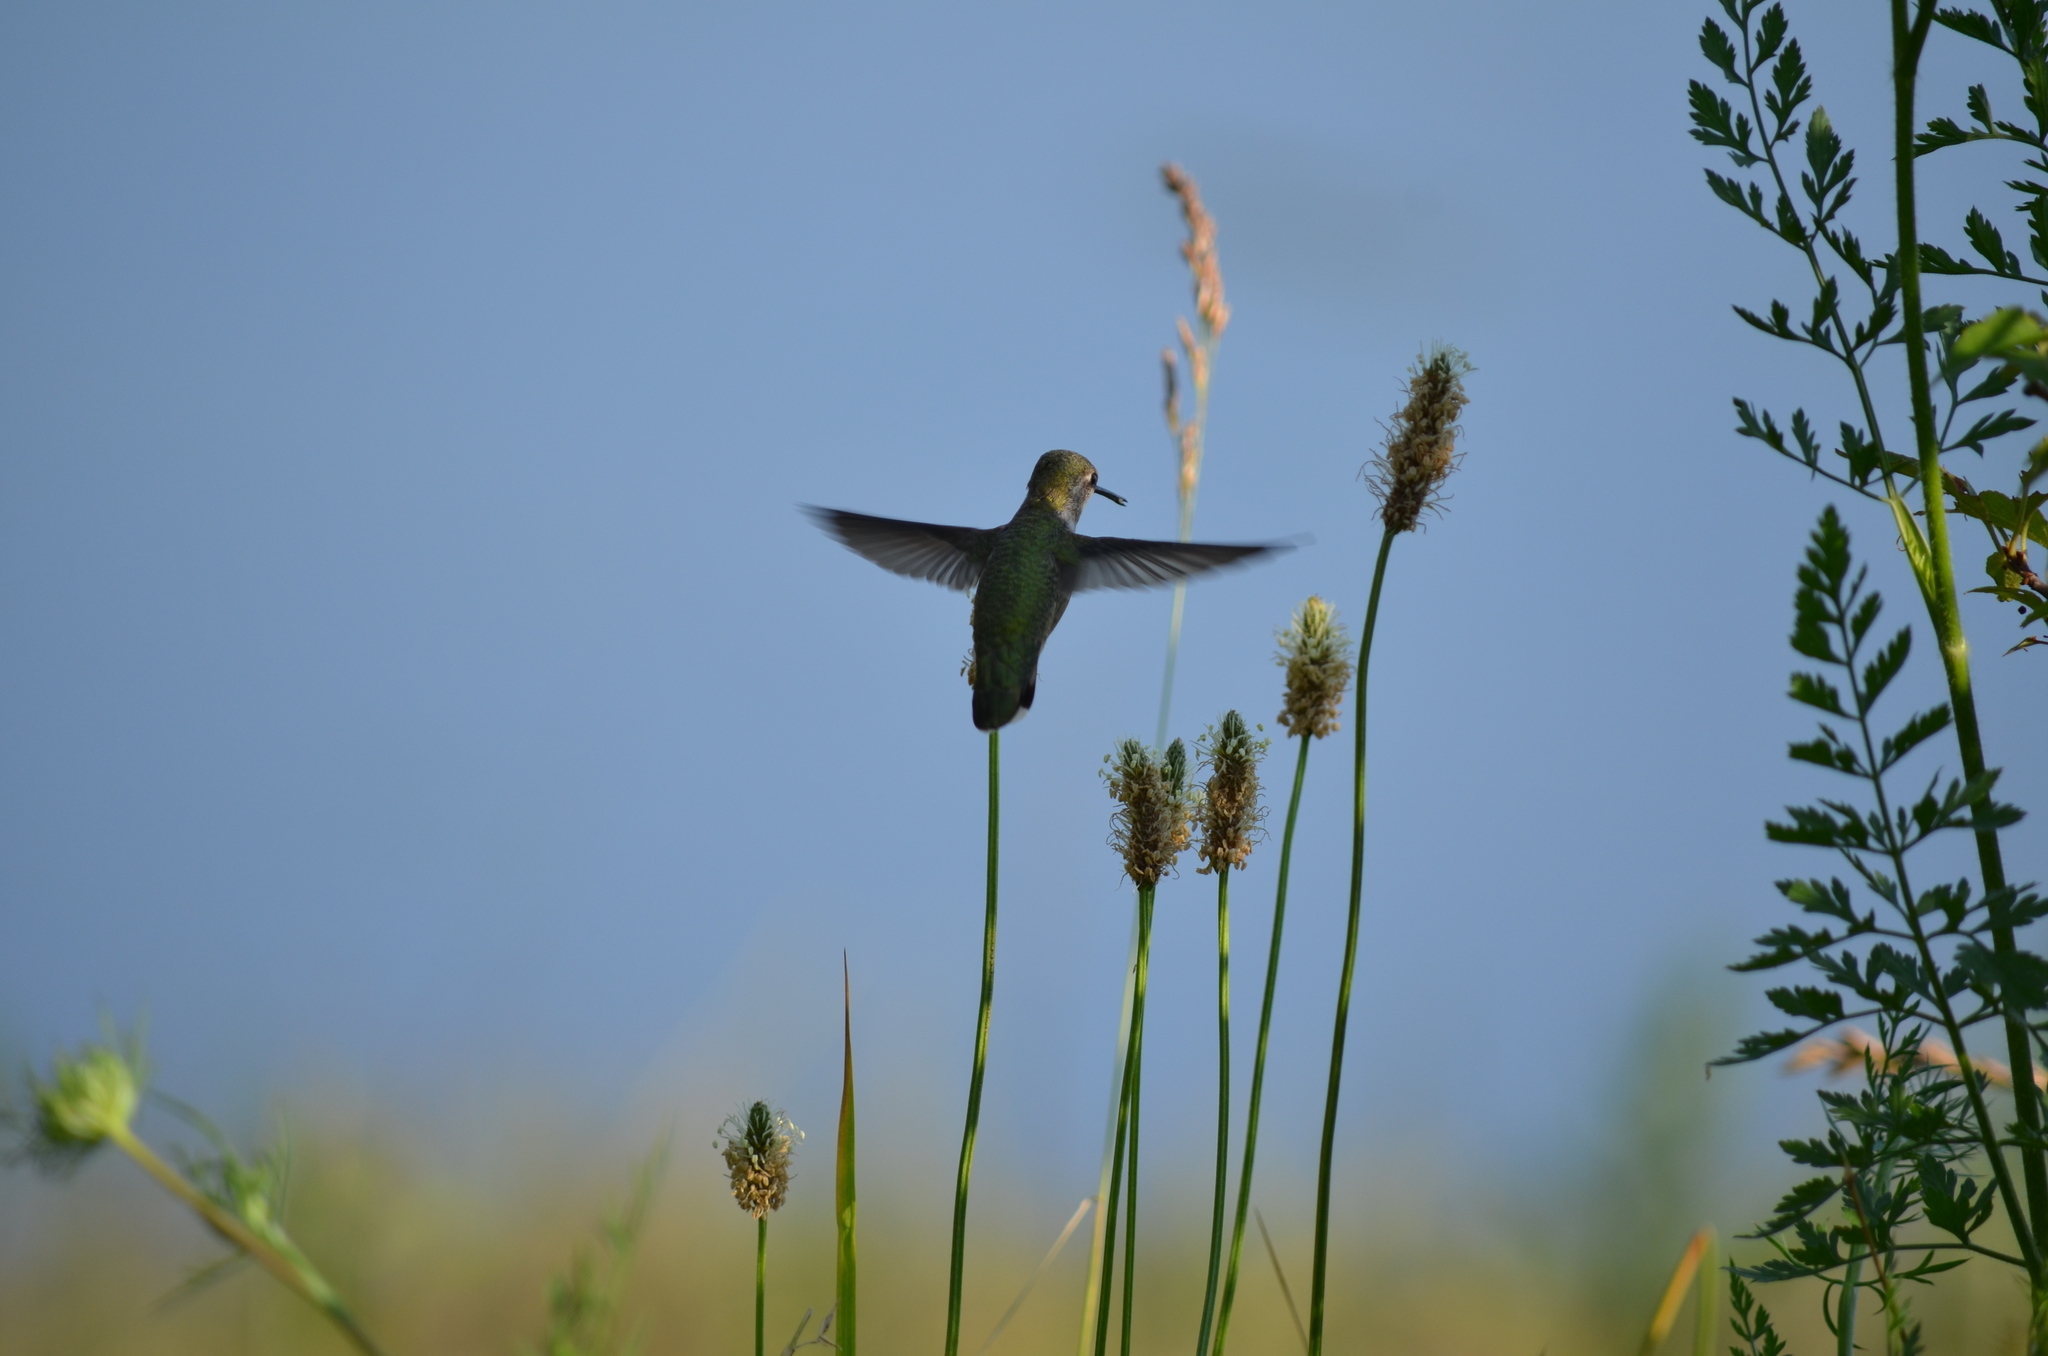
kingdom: Animalia
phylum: Chordata
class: Aves
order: Apodiformes
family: Trochilidae
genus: Calypte
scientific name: Calypte anna
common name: Anna's hummingbird
